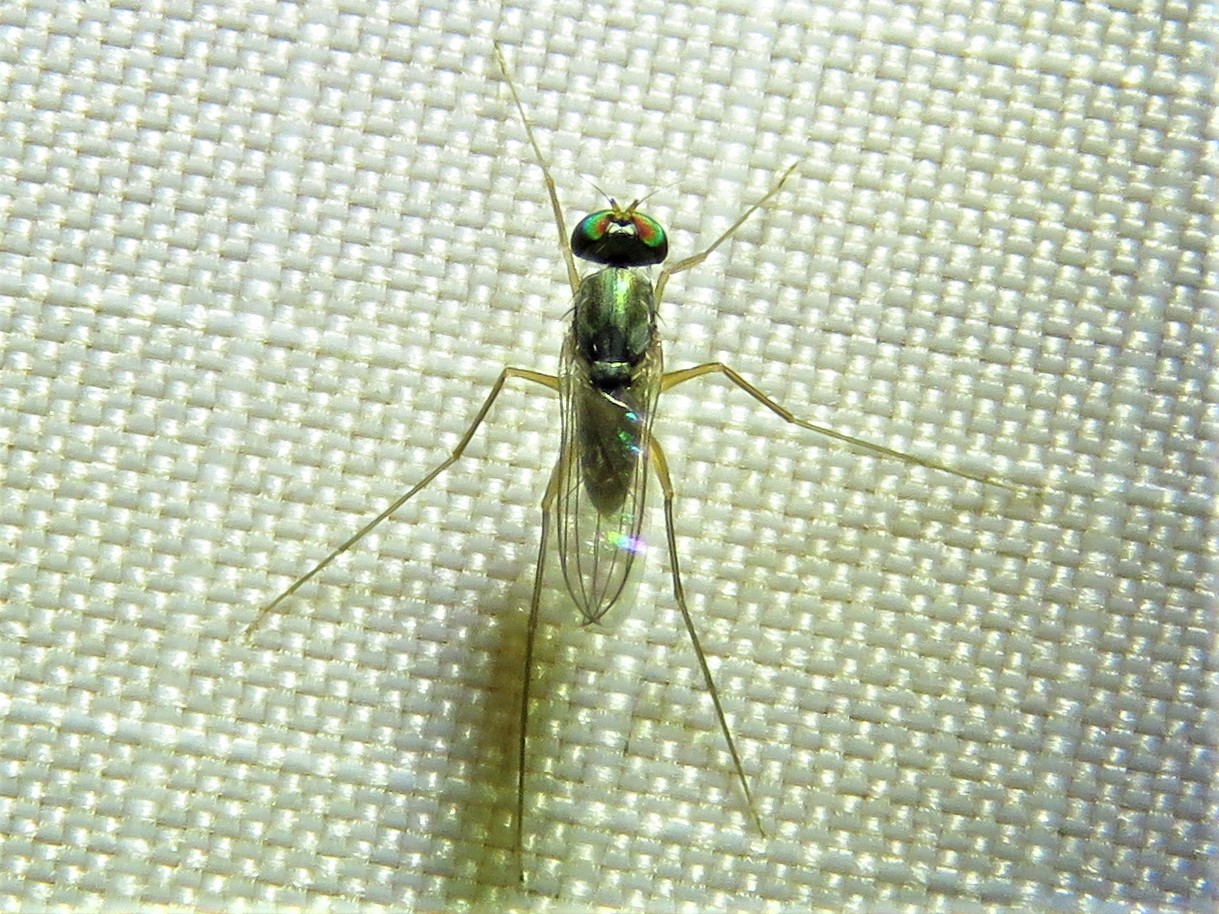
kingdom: Animalia
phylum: Arthropoda
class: Insecta
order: Diptera
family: Dolichopodidae
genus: Dactylomyia
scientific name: Dactylomyia lateralis
